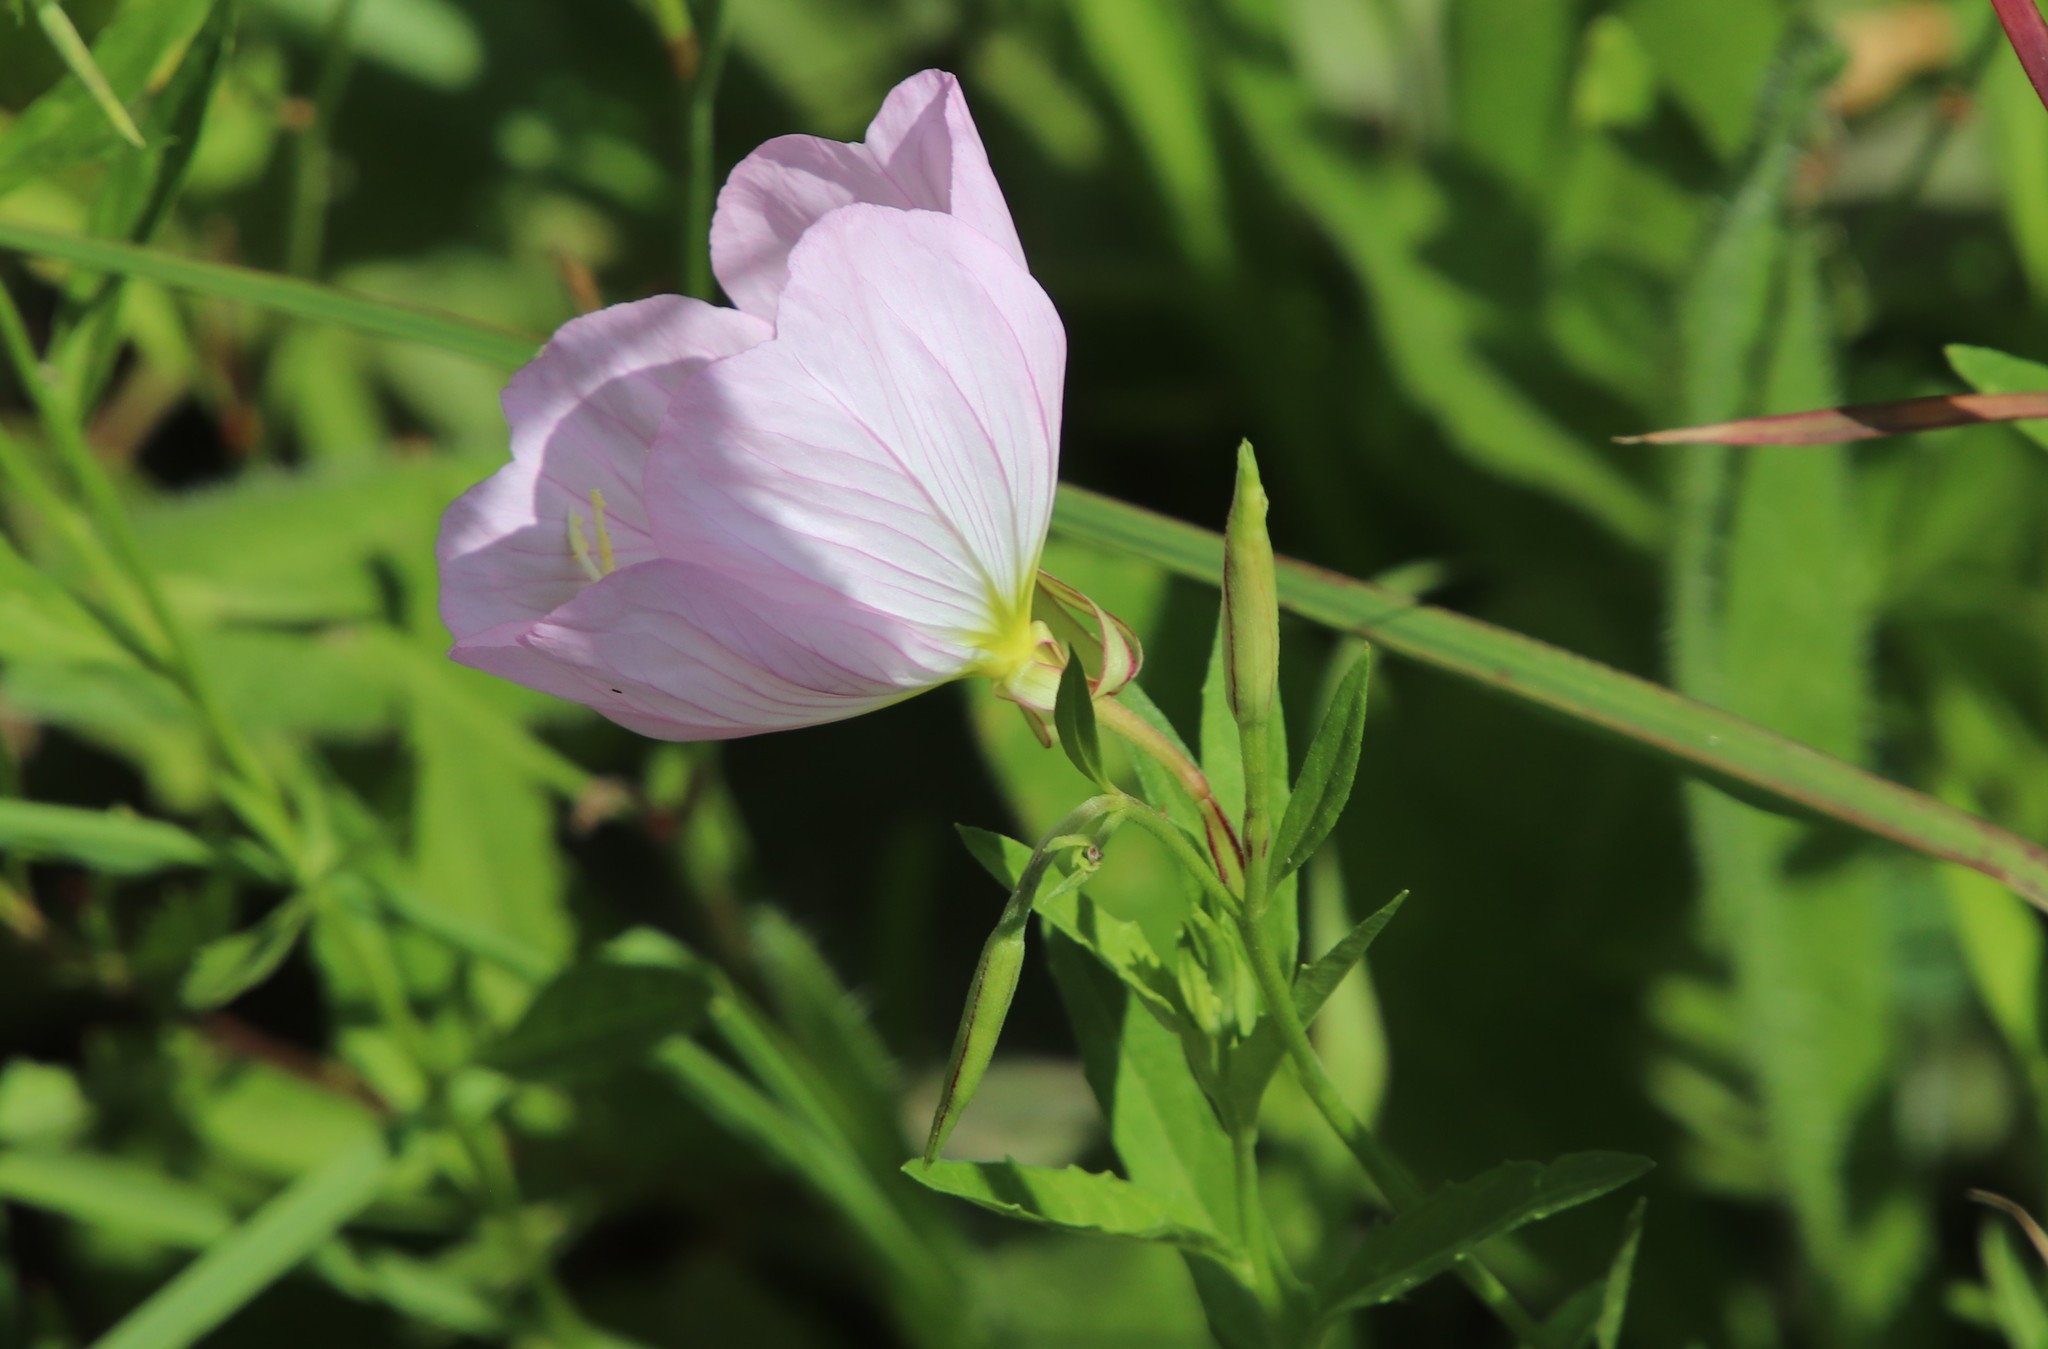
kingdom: Plantae
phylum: Tracheophyta
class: Magnoliopsida
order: Myrtales
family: Onagraceae
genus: Oenothera
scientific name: Oenothera speciosa
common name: White evening-primrose
